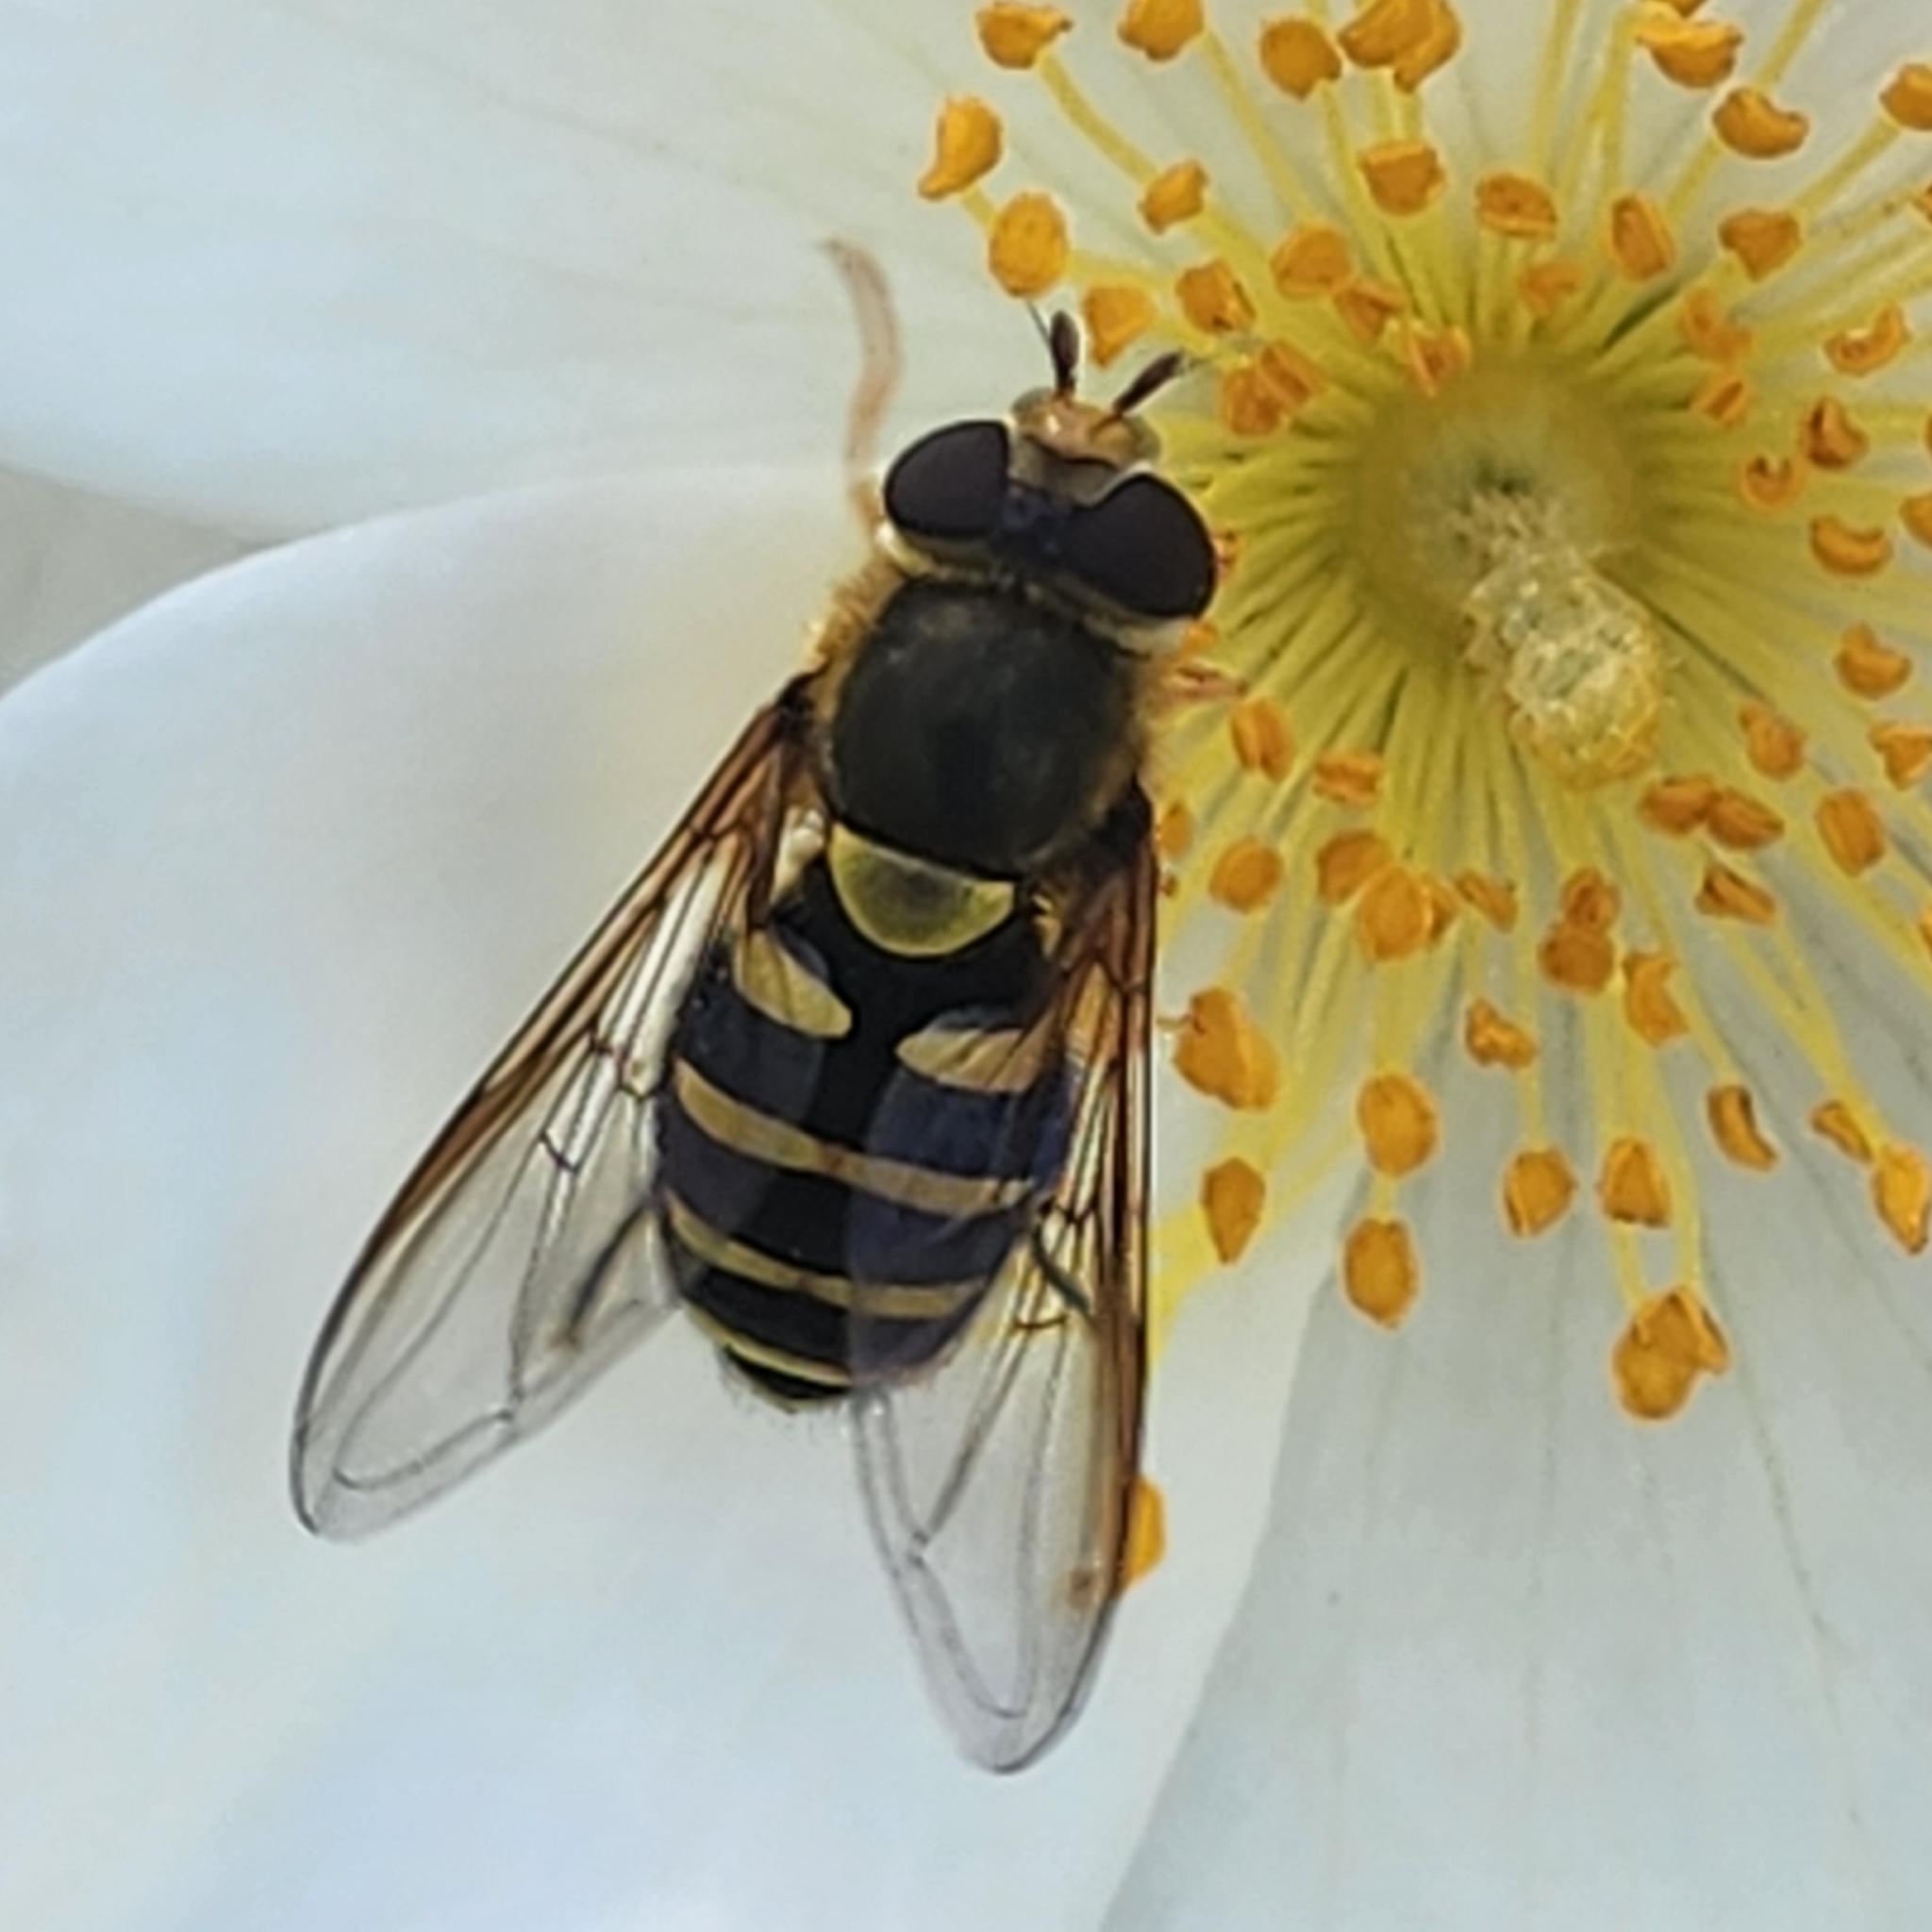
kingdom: Animalia
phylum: Arthropoda
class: Insecta
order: Diptera
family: Syrphidae
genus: Syrphus
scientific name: Syrphus opinator
